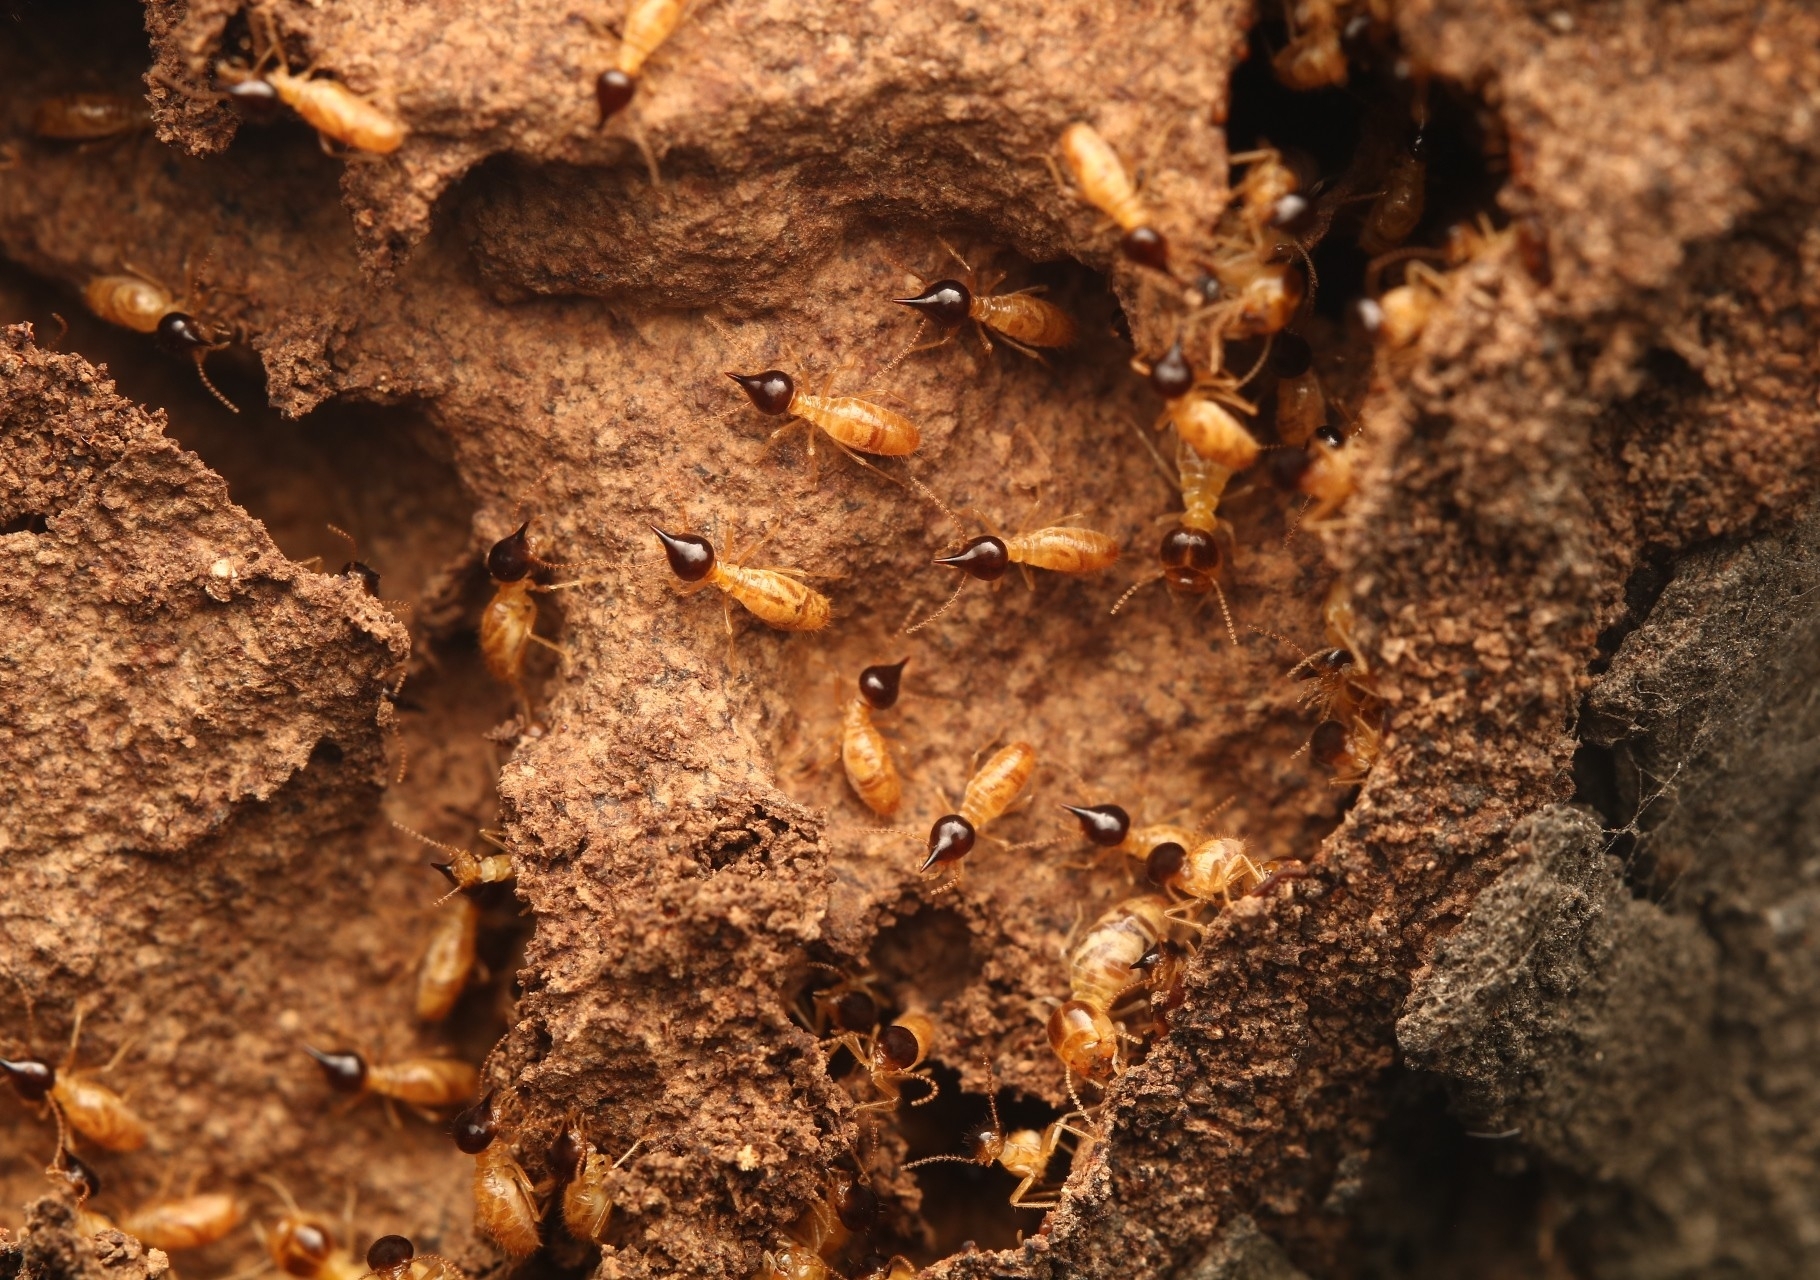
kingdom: Animalia
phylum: Arthropoda
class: Insecta
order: Blattodea
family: Termitidae
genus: Nasutitermes
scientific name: Nasutitermes corniger
